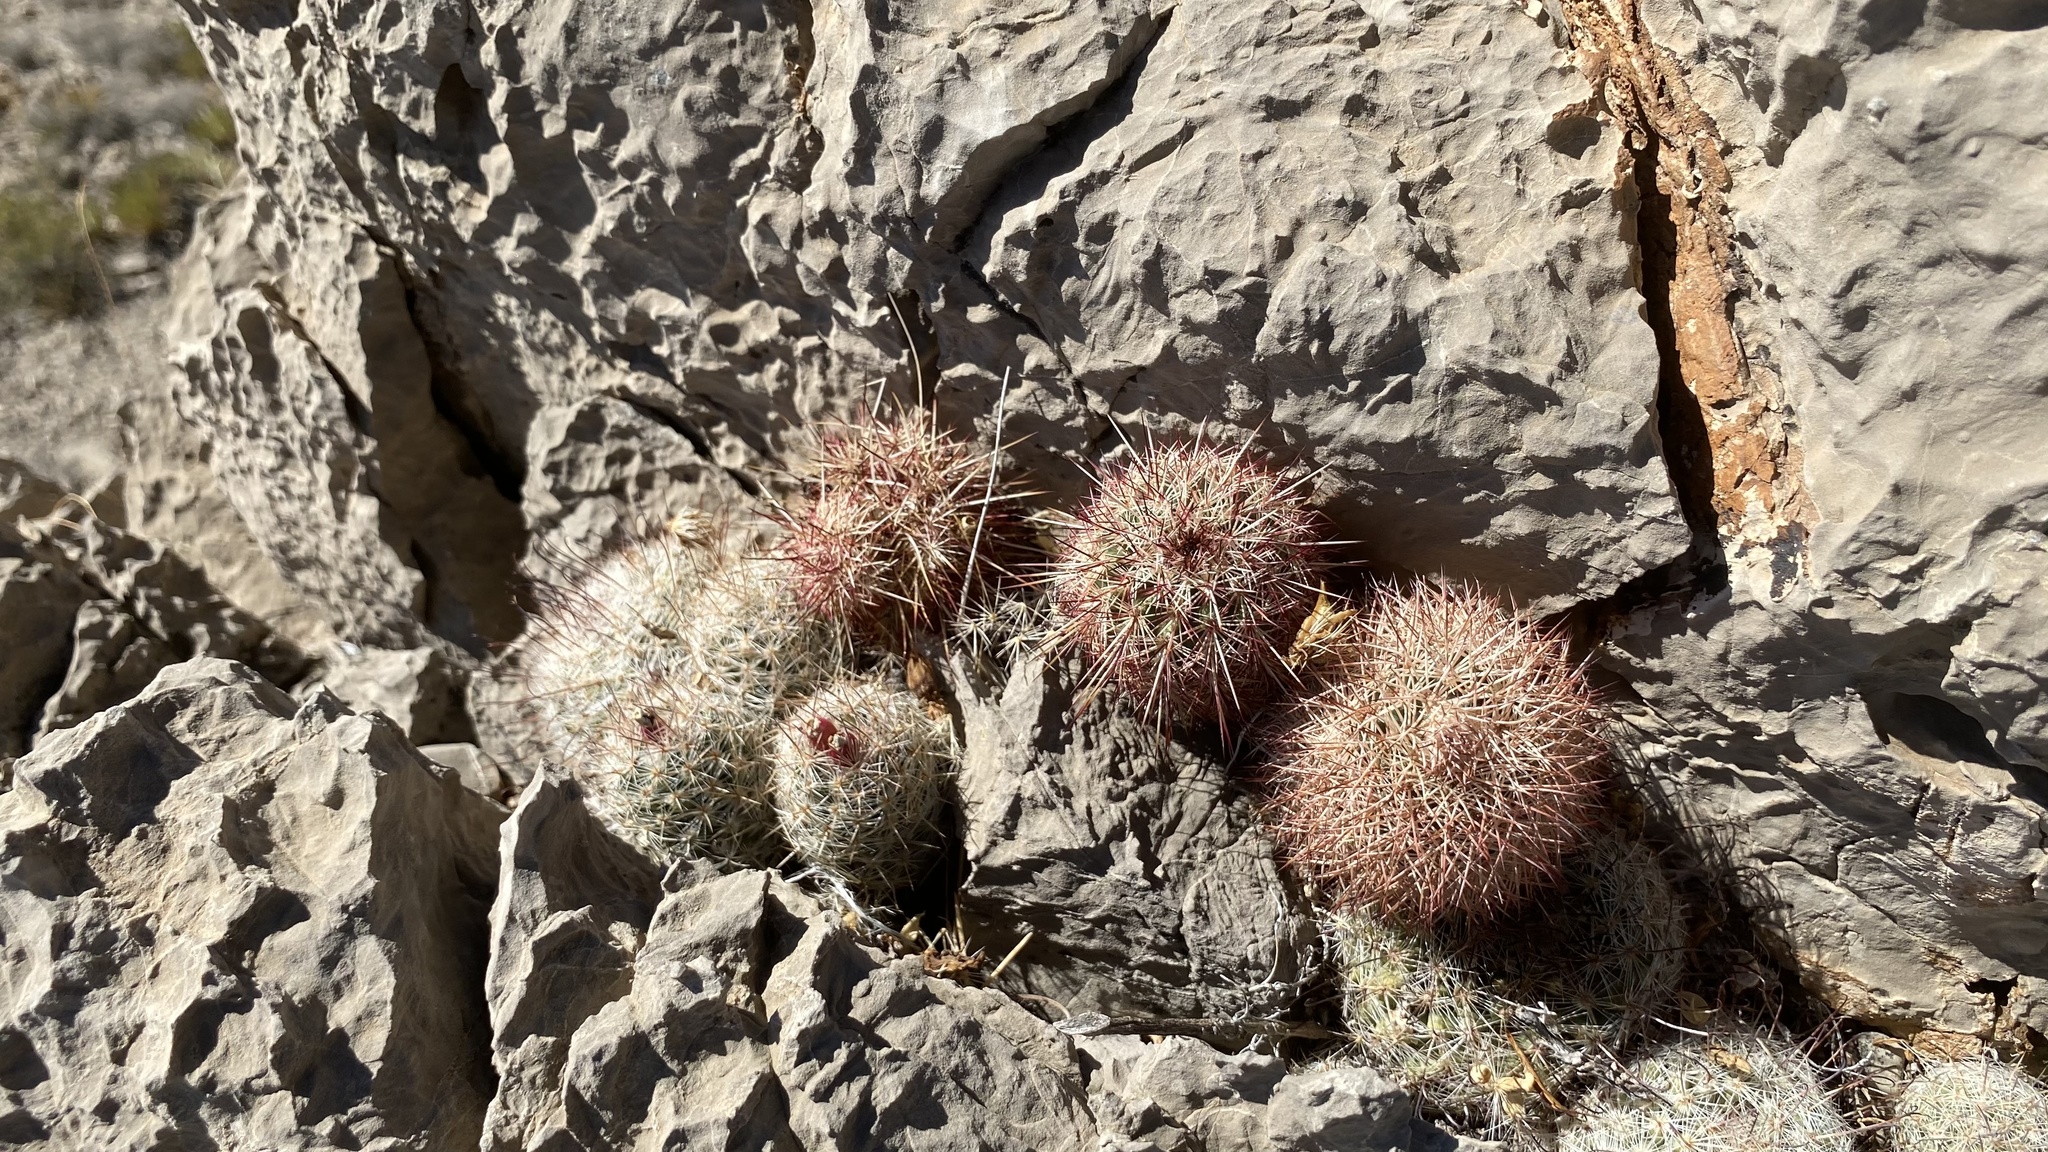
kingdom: Plantae
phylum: Tracheophyta
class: Magnoliopsida
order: Caryophyllales
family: Cactaceae
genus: Echinocereus
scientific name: Echinocereus dasyacanthus
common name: Spiny hedgehog cactus
